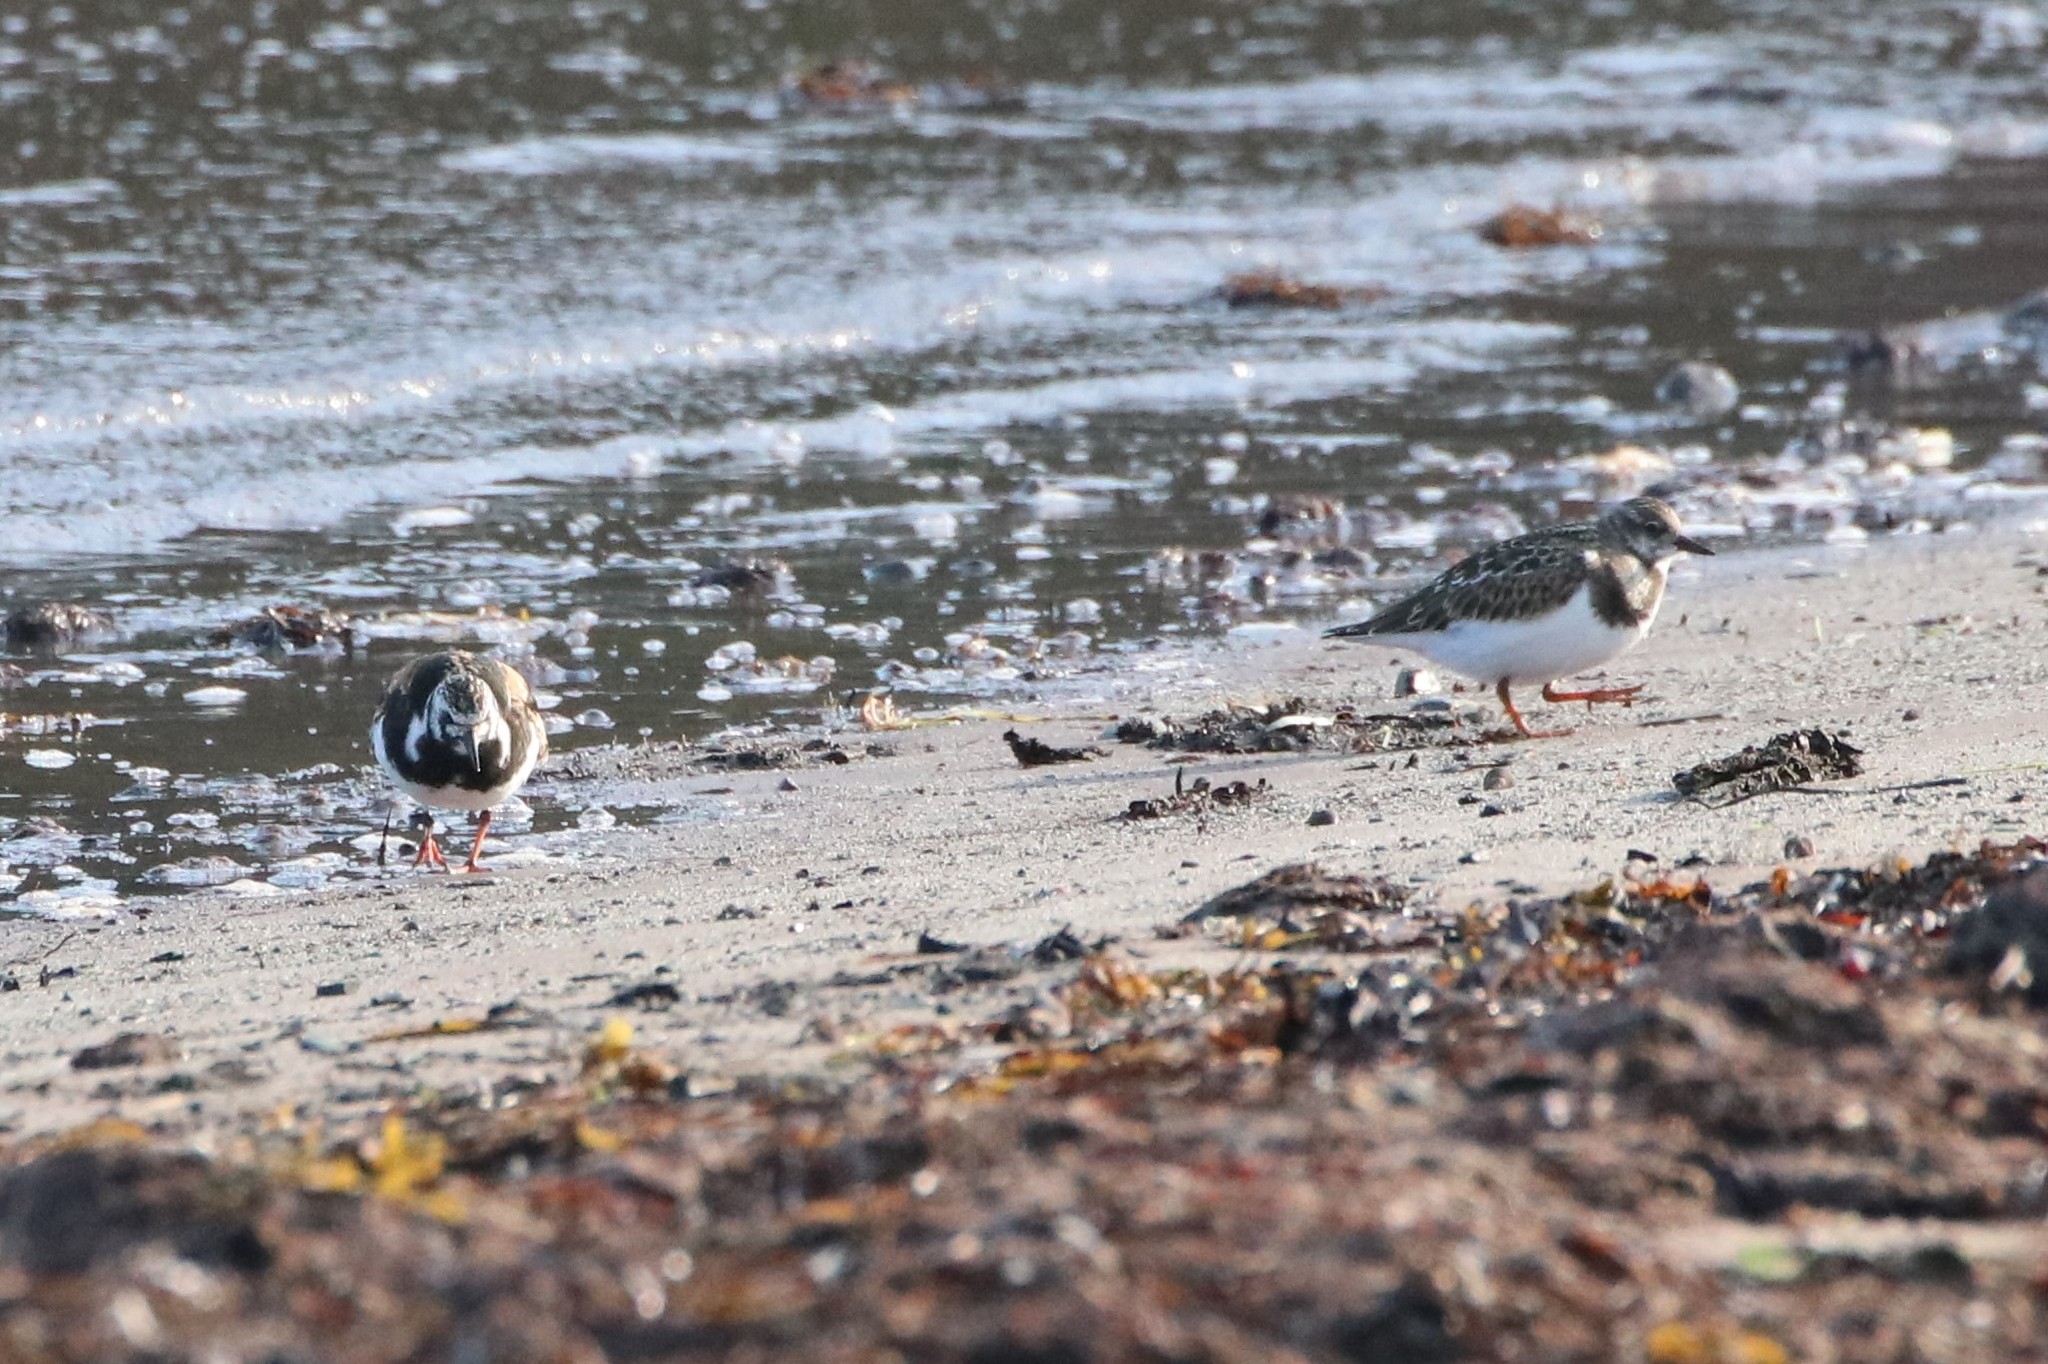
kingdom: Animalia
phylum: Chordata
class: Aves
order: Charadriiformes
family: Scolopacidae
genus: Arenaria
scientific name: Arenaria interpres
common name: Ruddy turnstone
